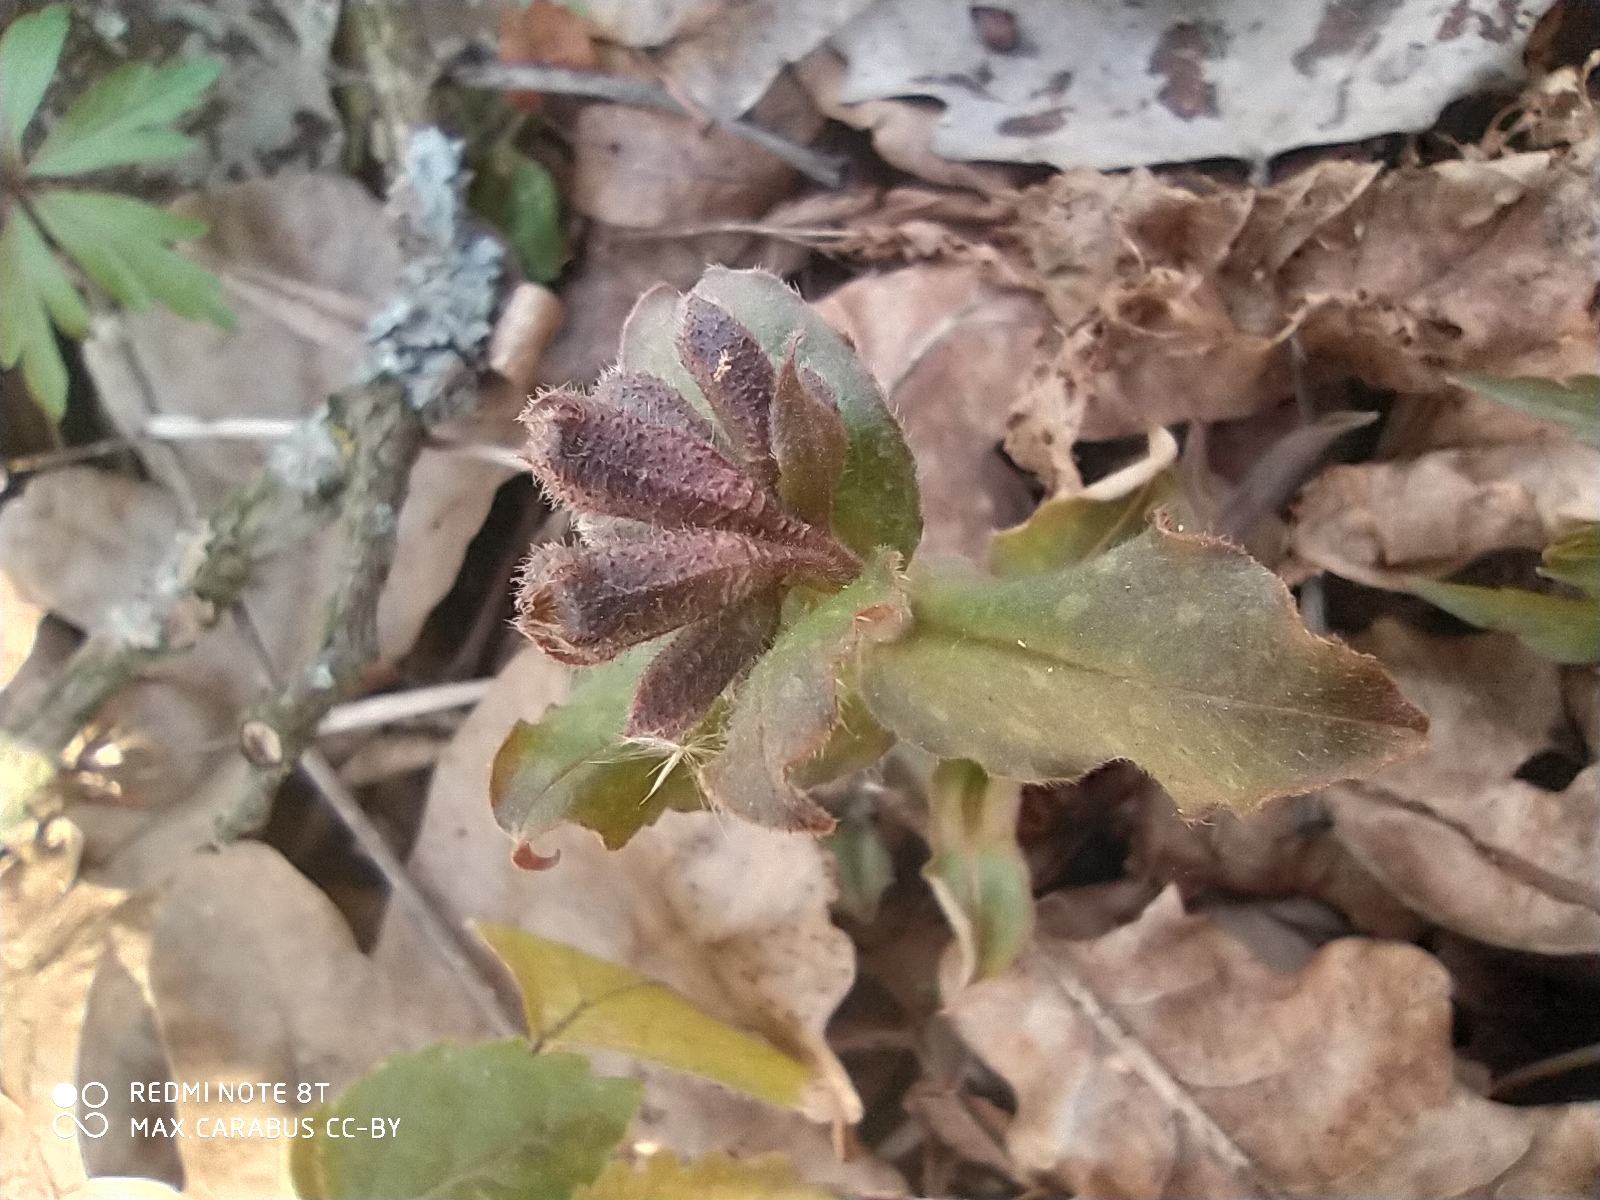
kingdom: Plantae
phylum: Tracheophyta
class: Magnoliopsida
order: Boraginales
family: Boraginaceae
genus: Pulmonaria
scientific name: Pulmonaria obscura
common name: Suffolk lungwort
